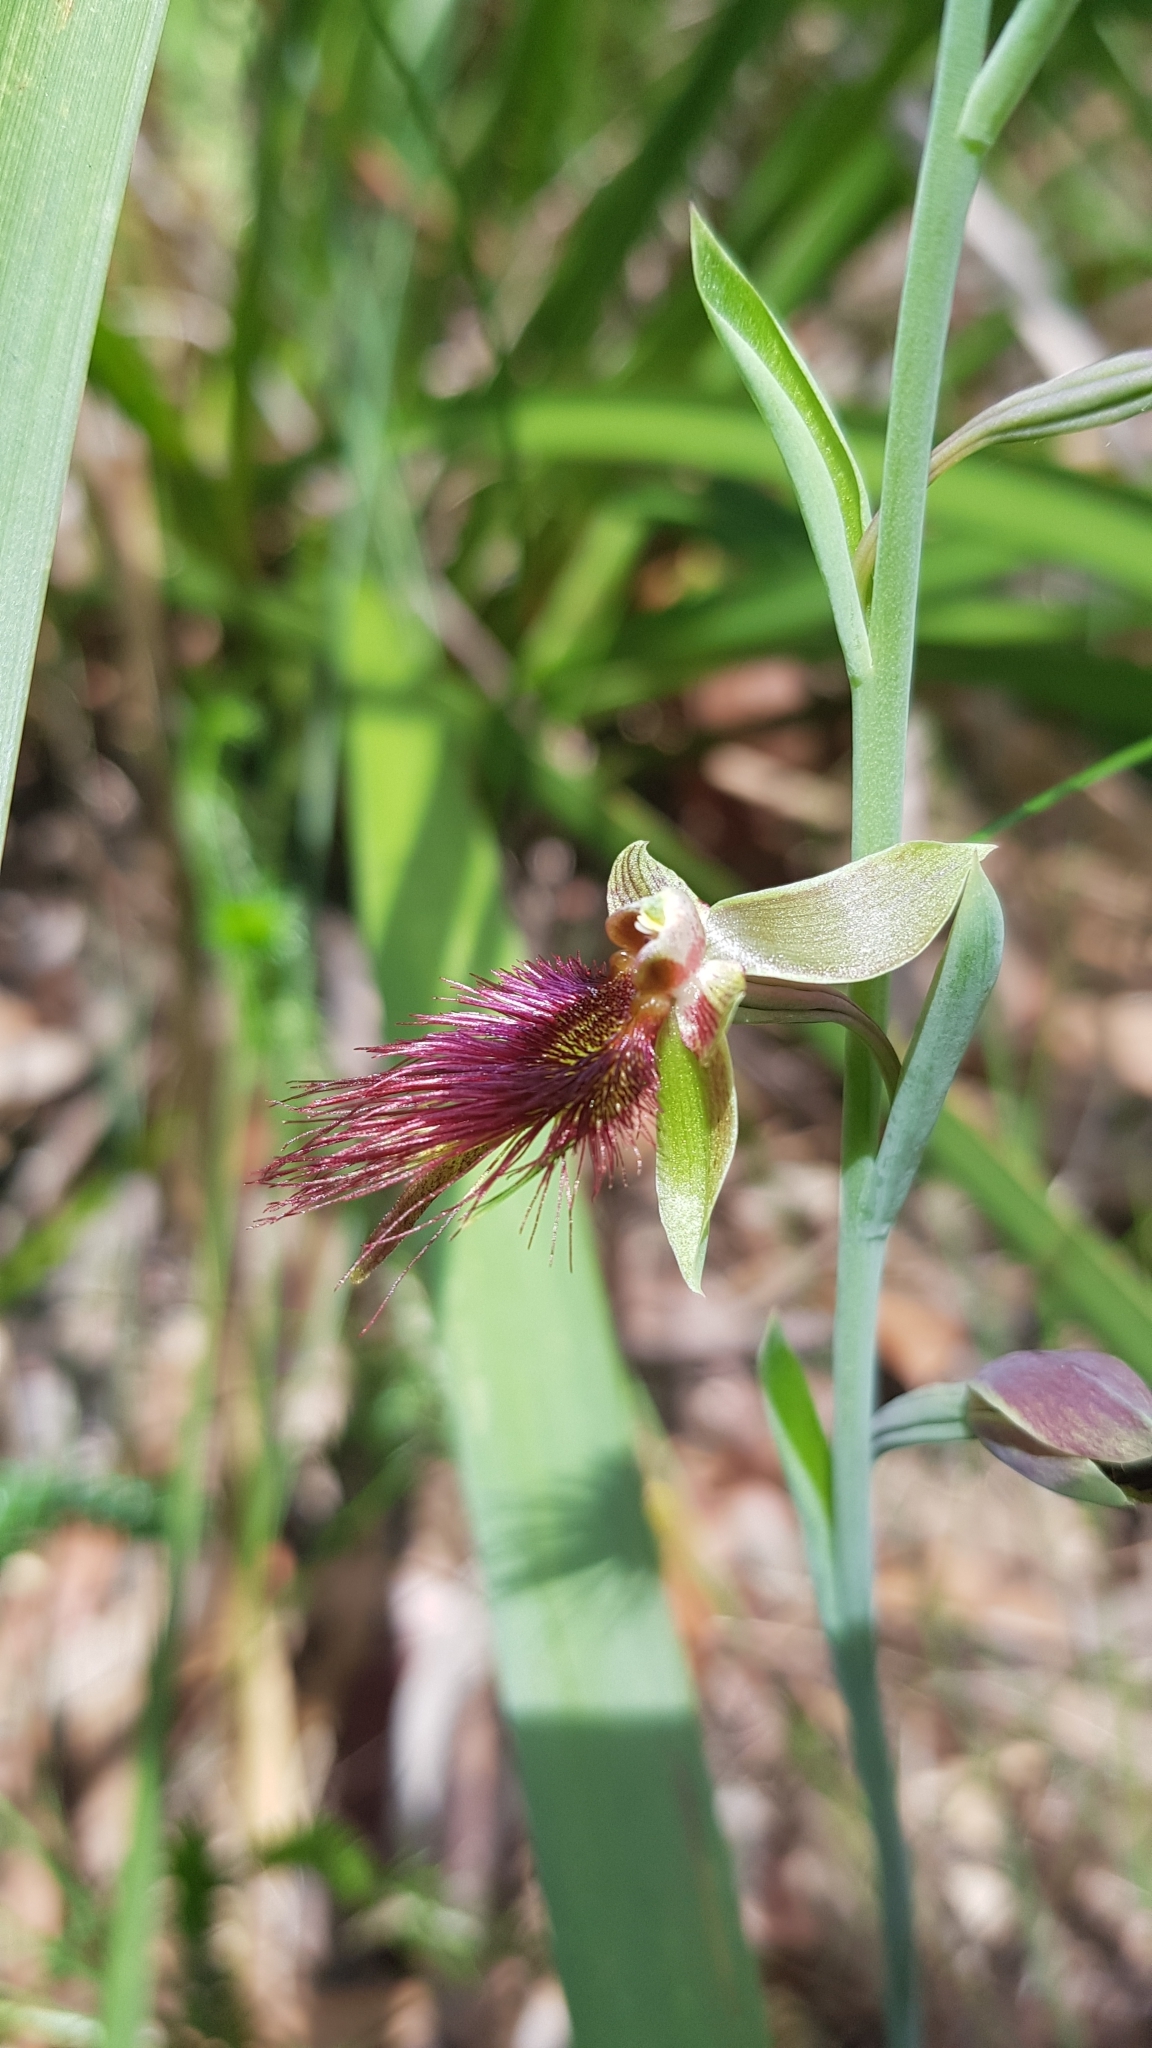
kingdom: Plantae
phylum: Tracheophyta
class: Liliopsida
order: Asparagales
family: Orchidaceae
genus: Calochilus
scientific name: Calochilus paludosus
